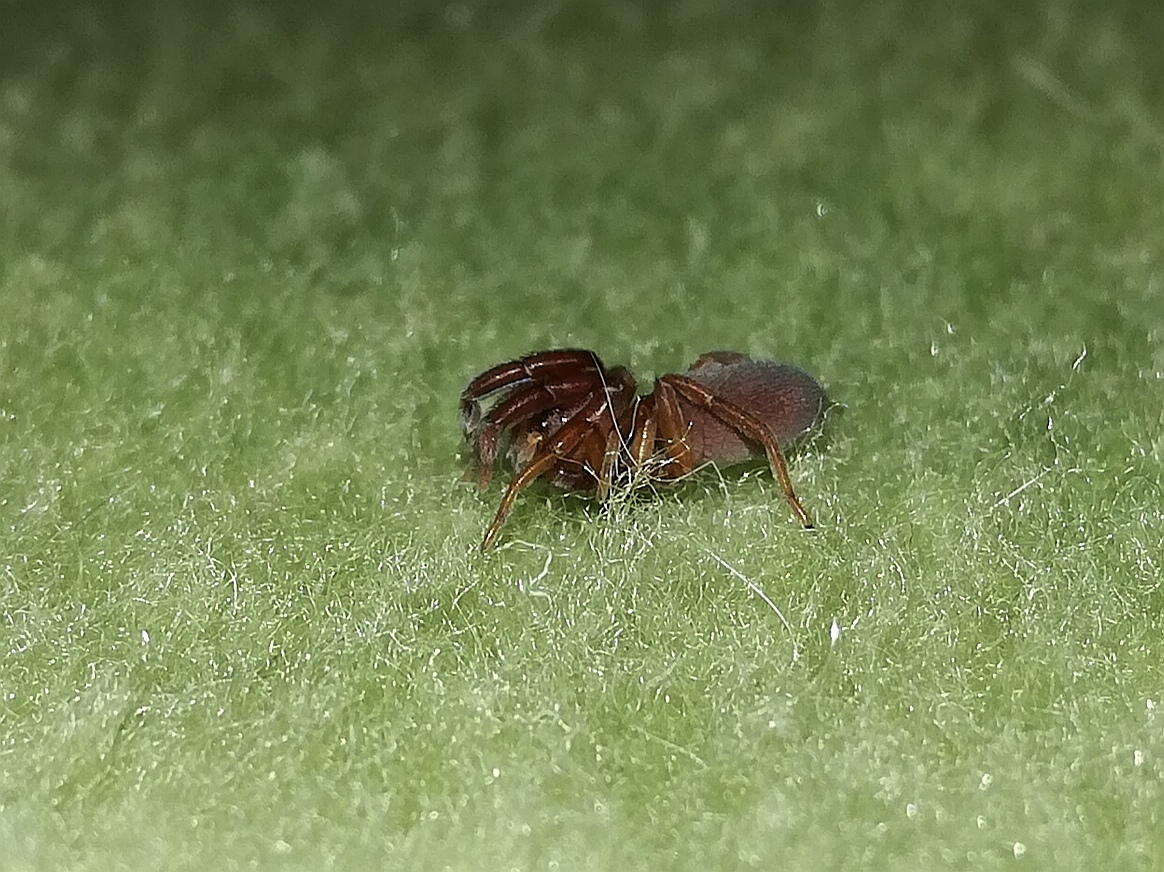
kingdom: Animalia
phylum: Arthropoda
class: Arachnida
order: Araneae
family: Palpimanidae
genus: Palpimanus
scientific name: Palpimanus globulifer
